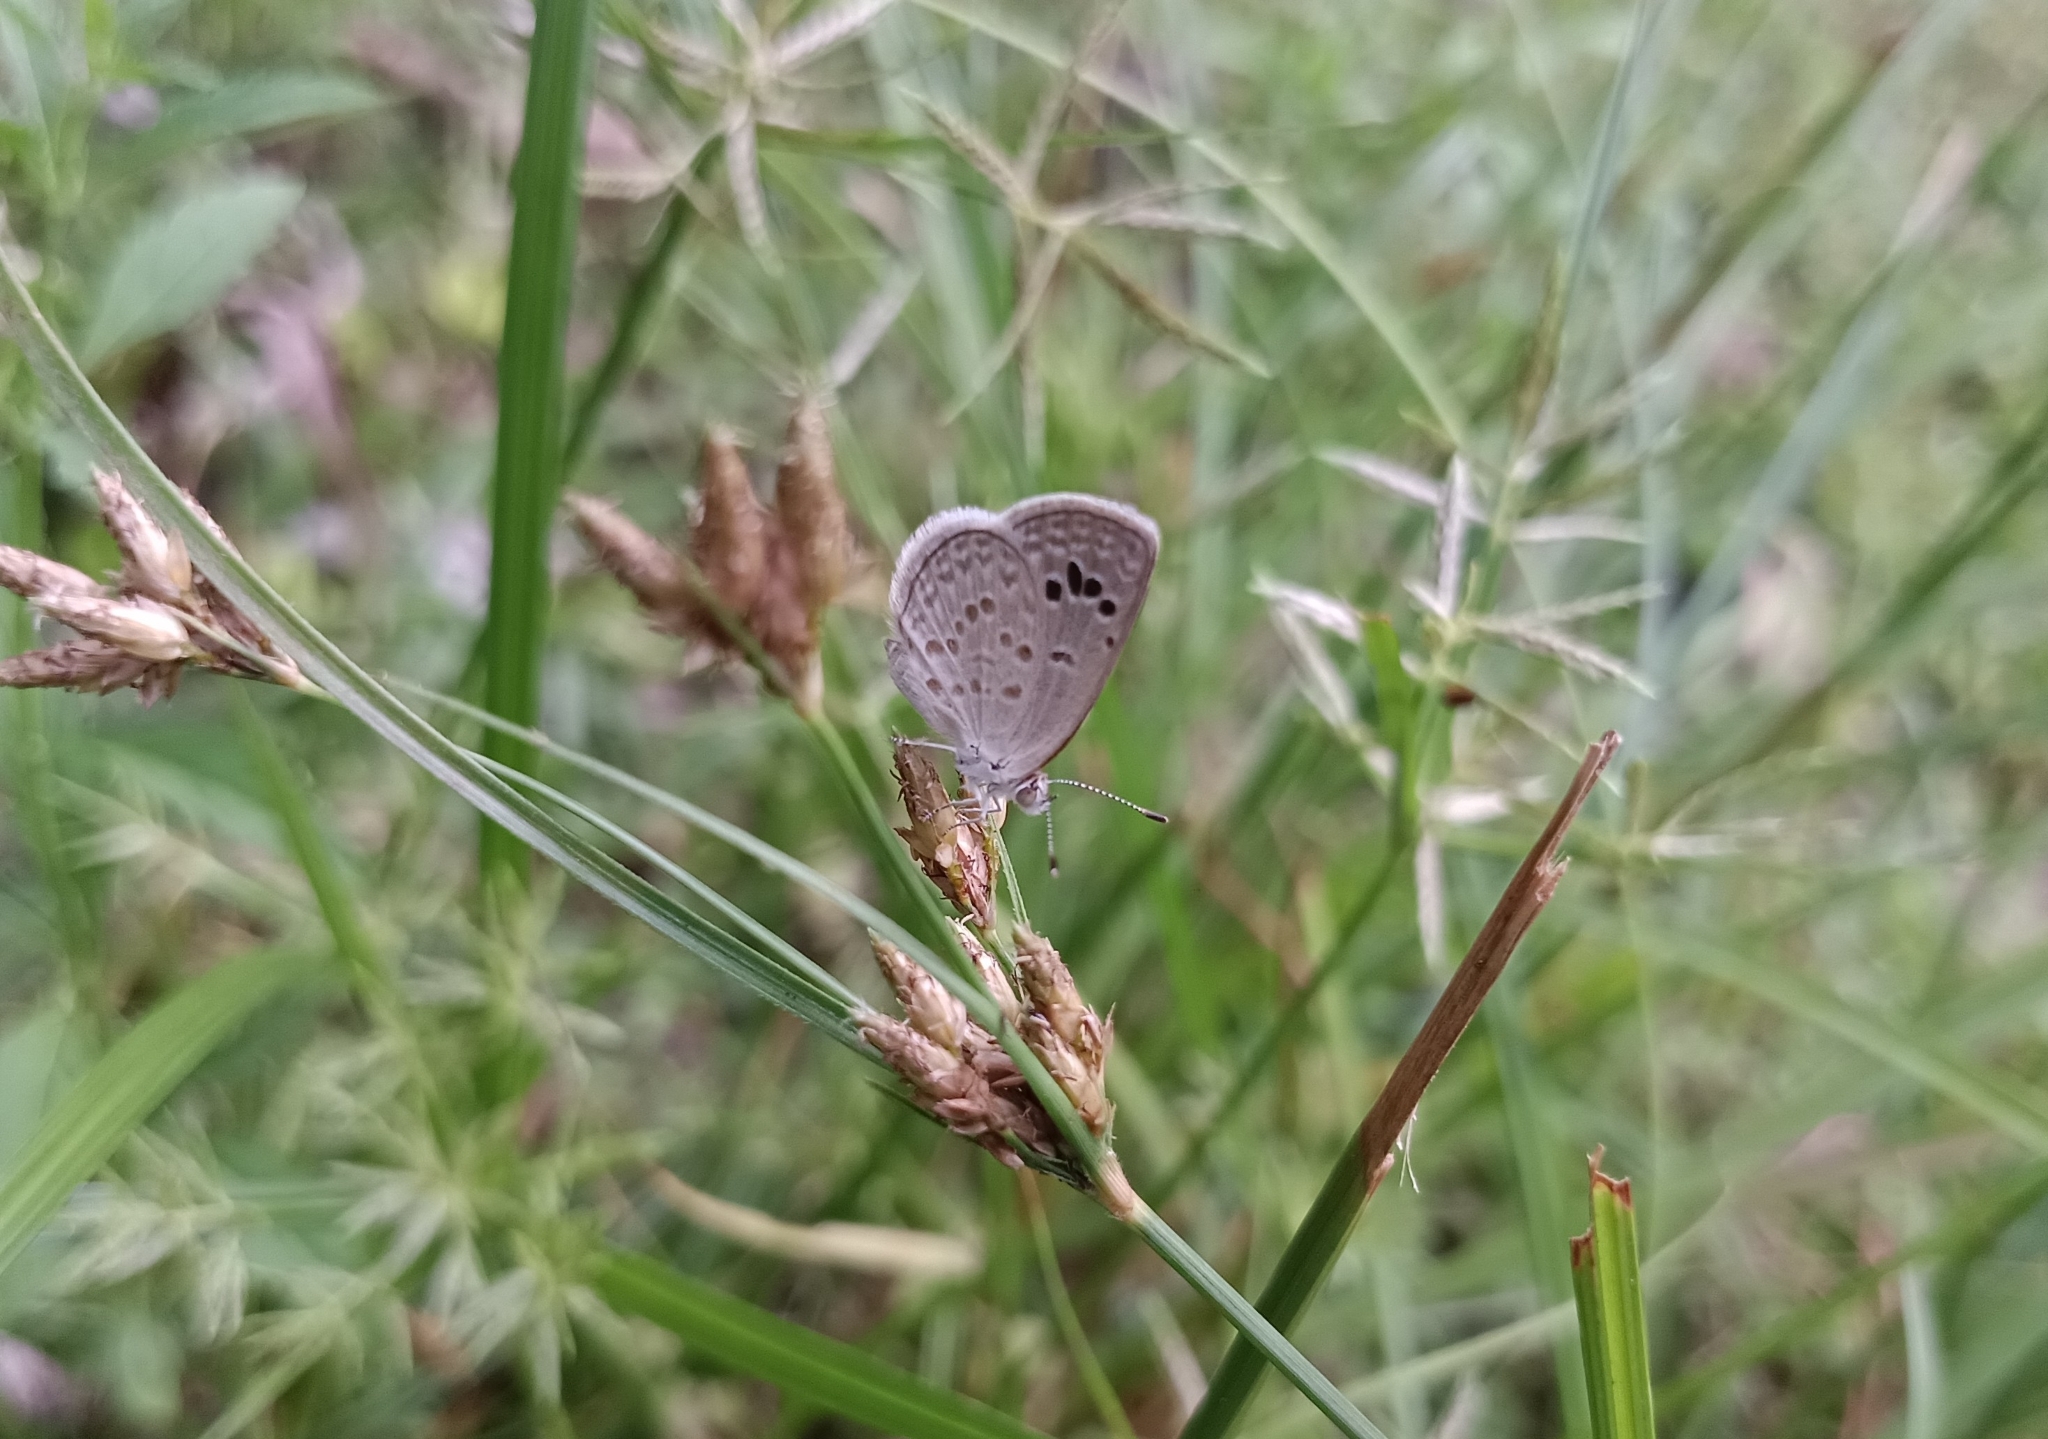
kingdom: Animalia
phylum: Arthropoda
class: Insecta
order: Lepidoptera
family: Lycaenidae
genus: Zizina
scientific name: Zizina otis
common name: Lesser grass blue
